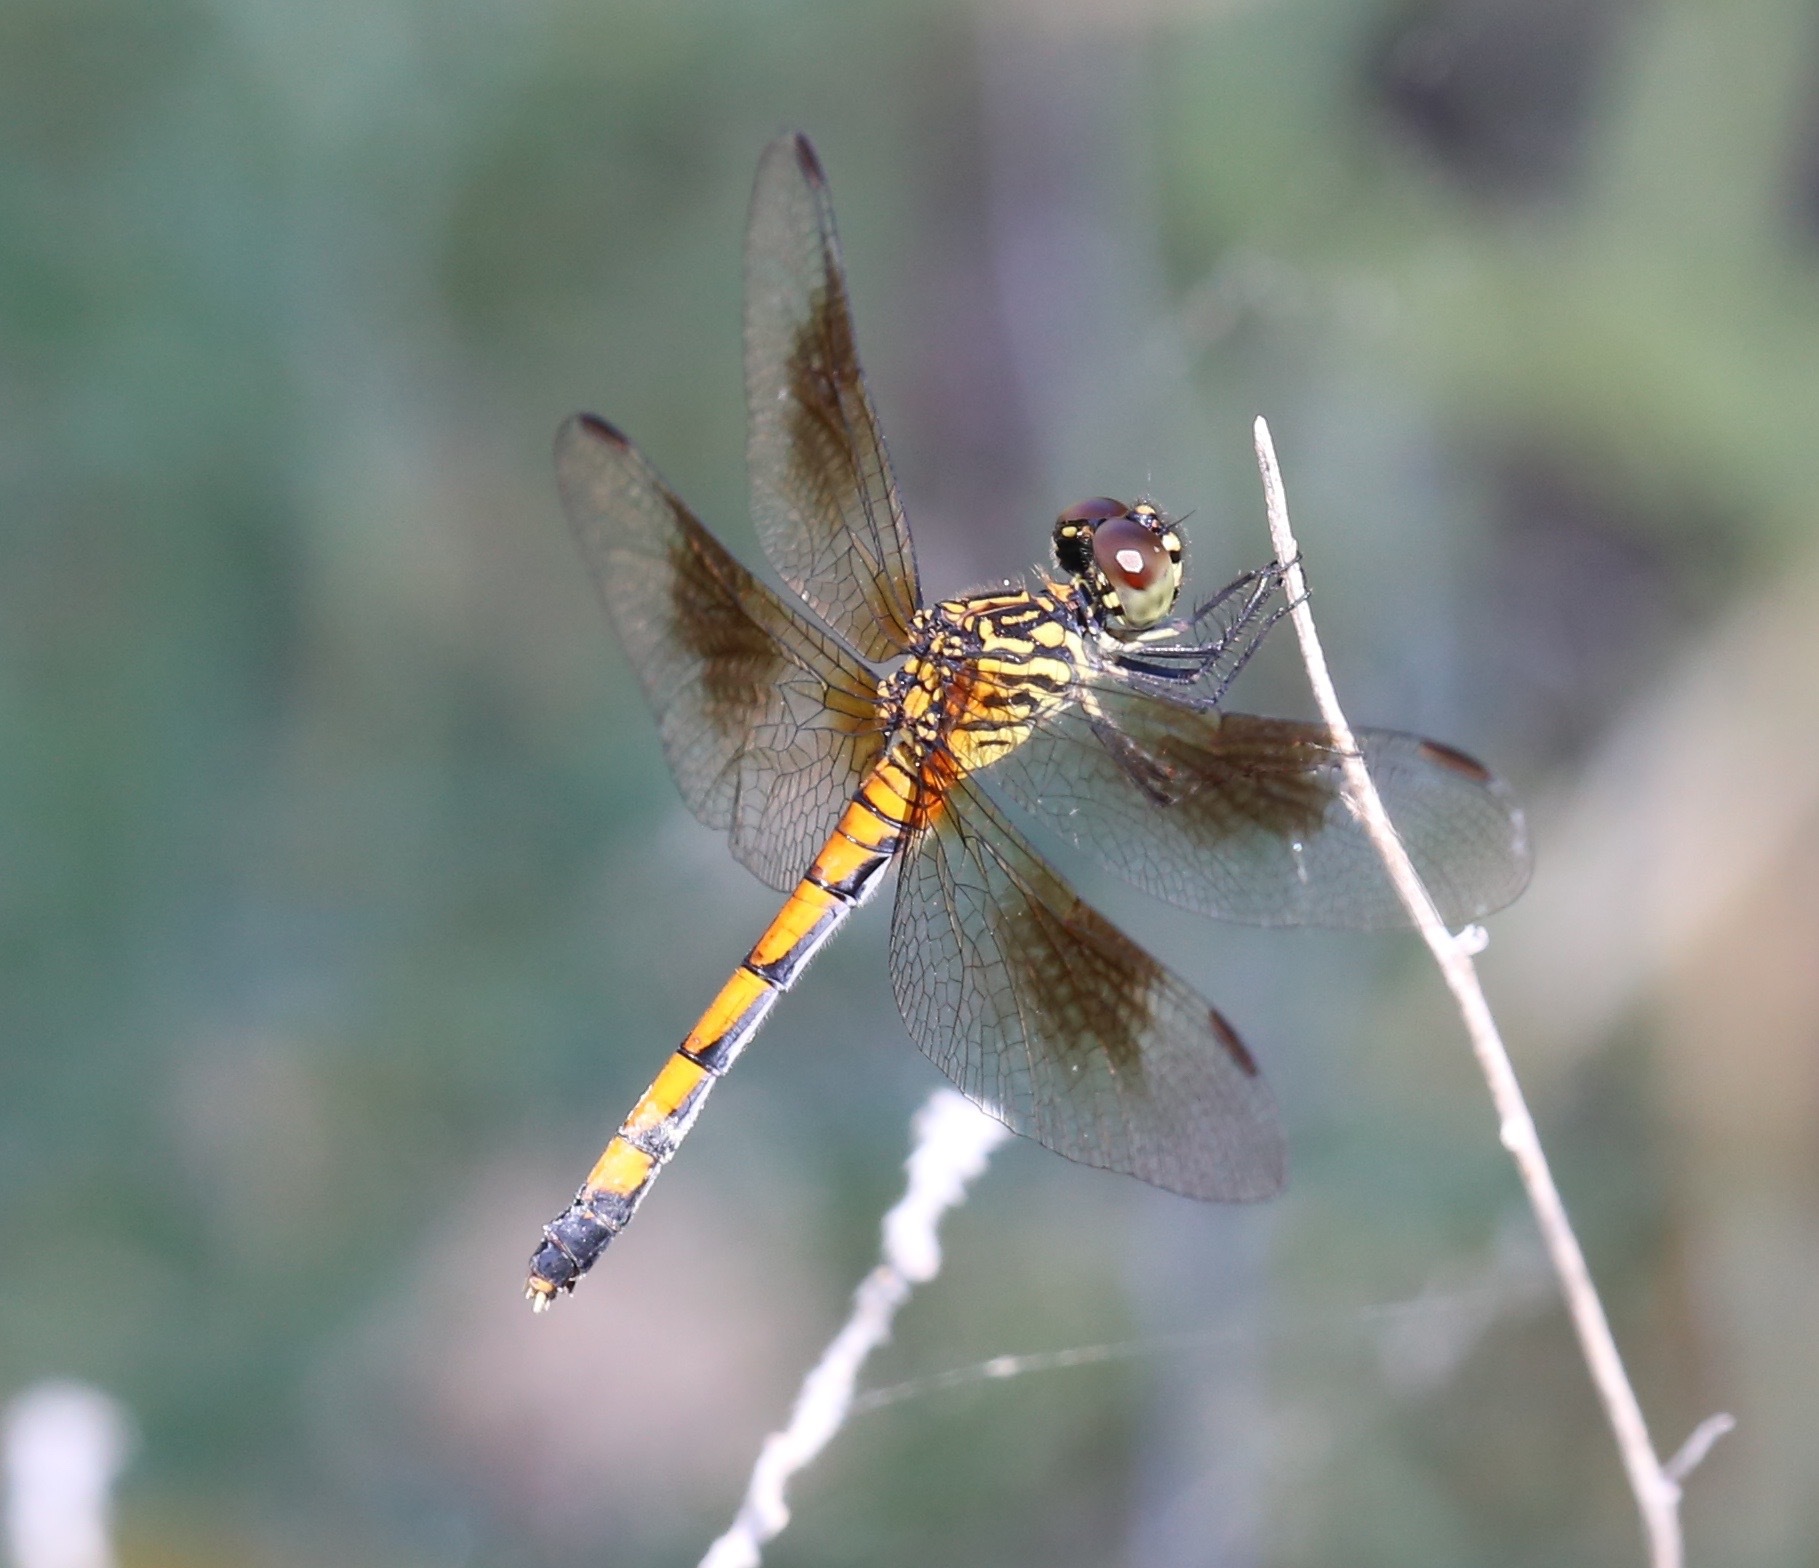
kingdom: Animalia
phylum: Arthropoda
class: Insecta
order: Odonata
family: Libellulidae
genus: Erythrodiplax
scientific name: Erythrodiplax berenice
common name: Seaside dragonlet
